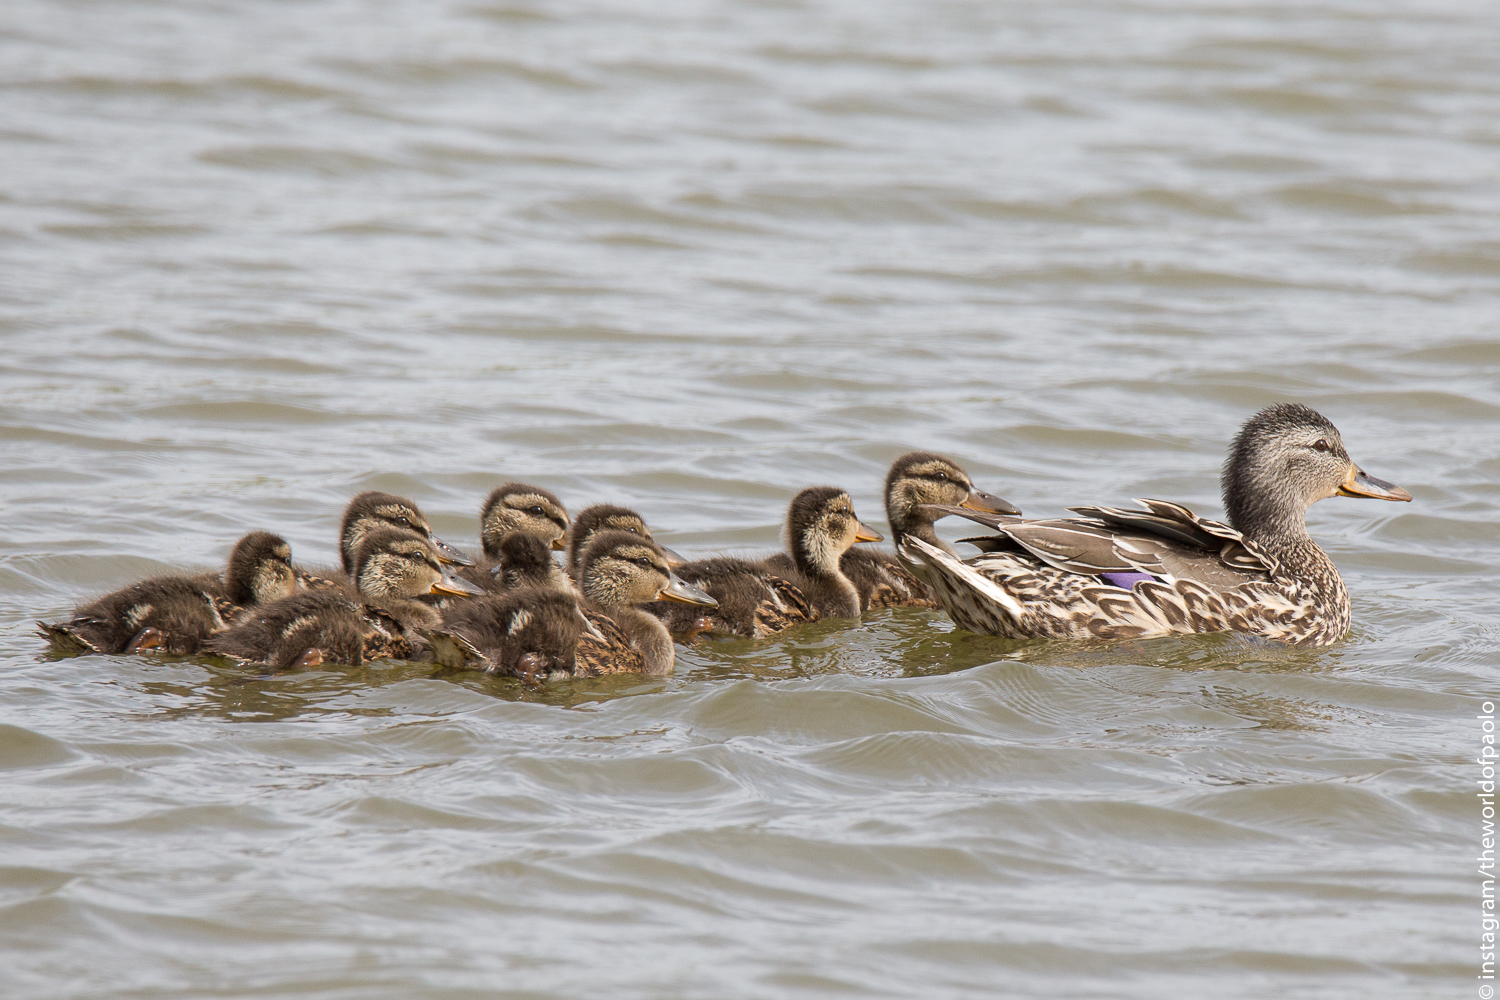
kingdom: Animalia
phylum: Chordata
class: Aves
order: Anseriformes
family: Anatidae
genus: Anas
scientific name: Anas platyrhynchos
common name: Mallard
